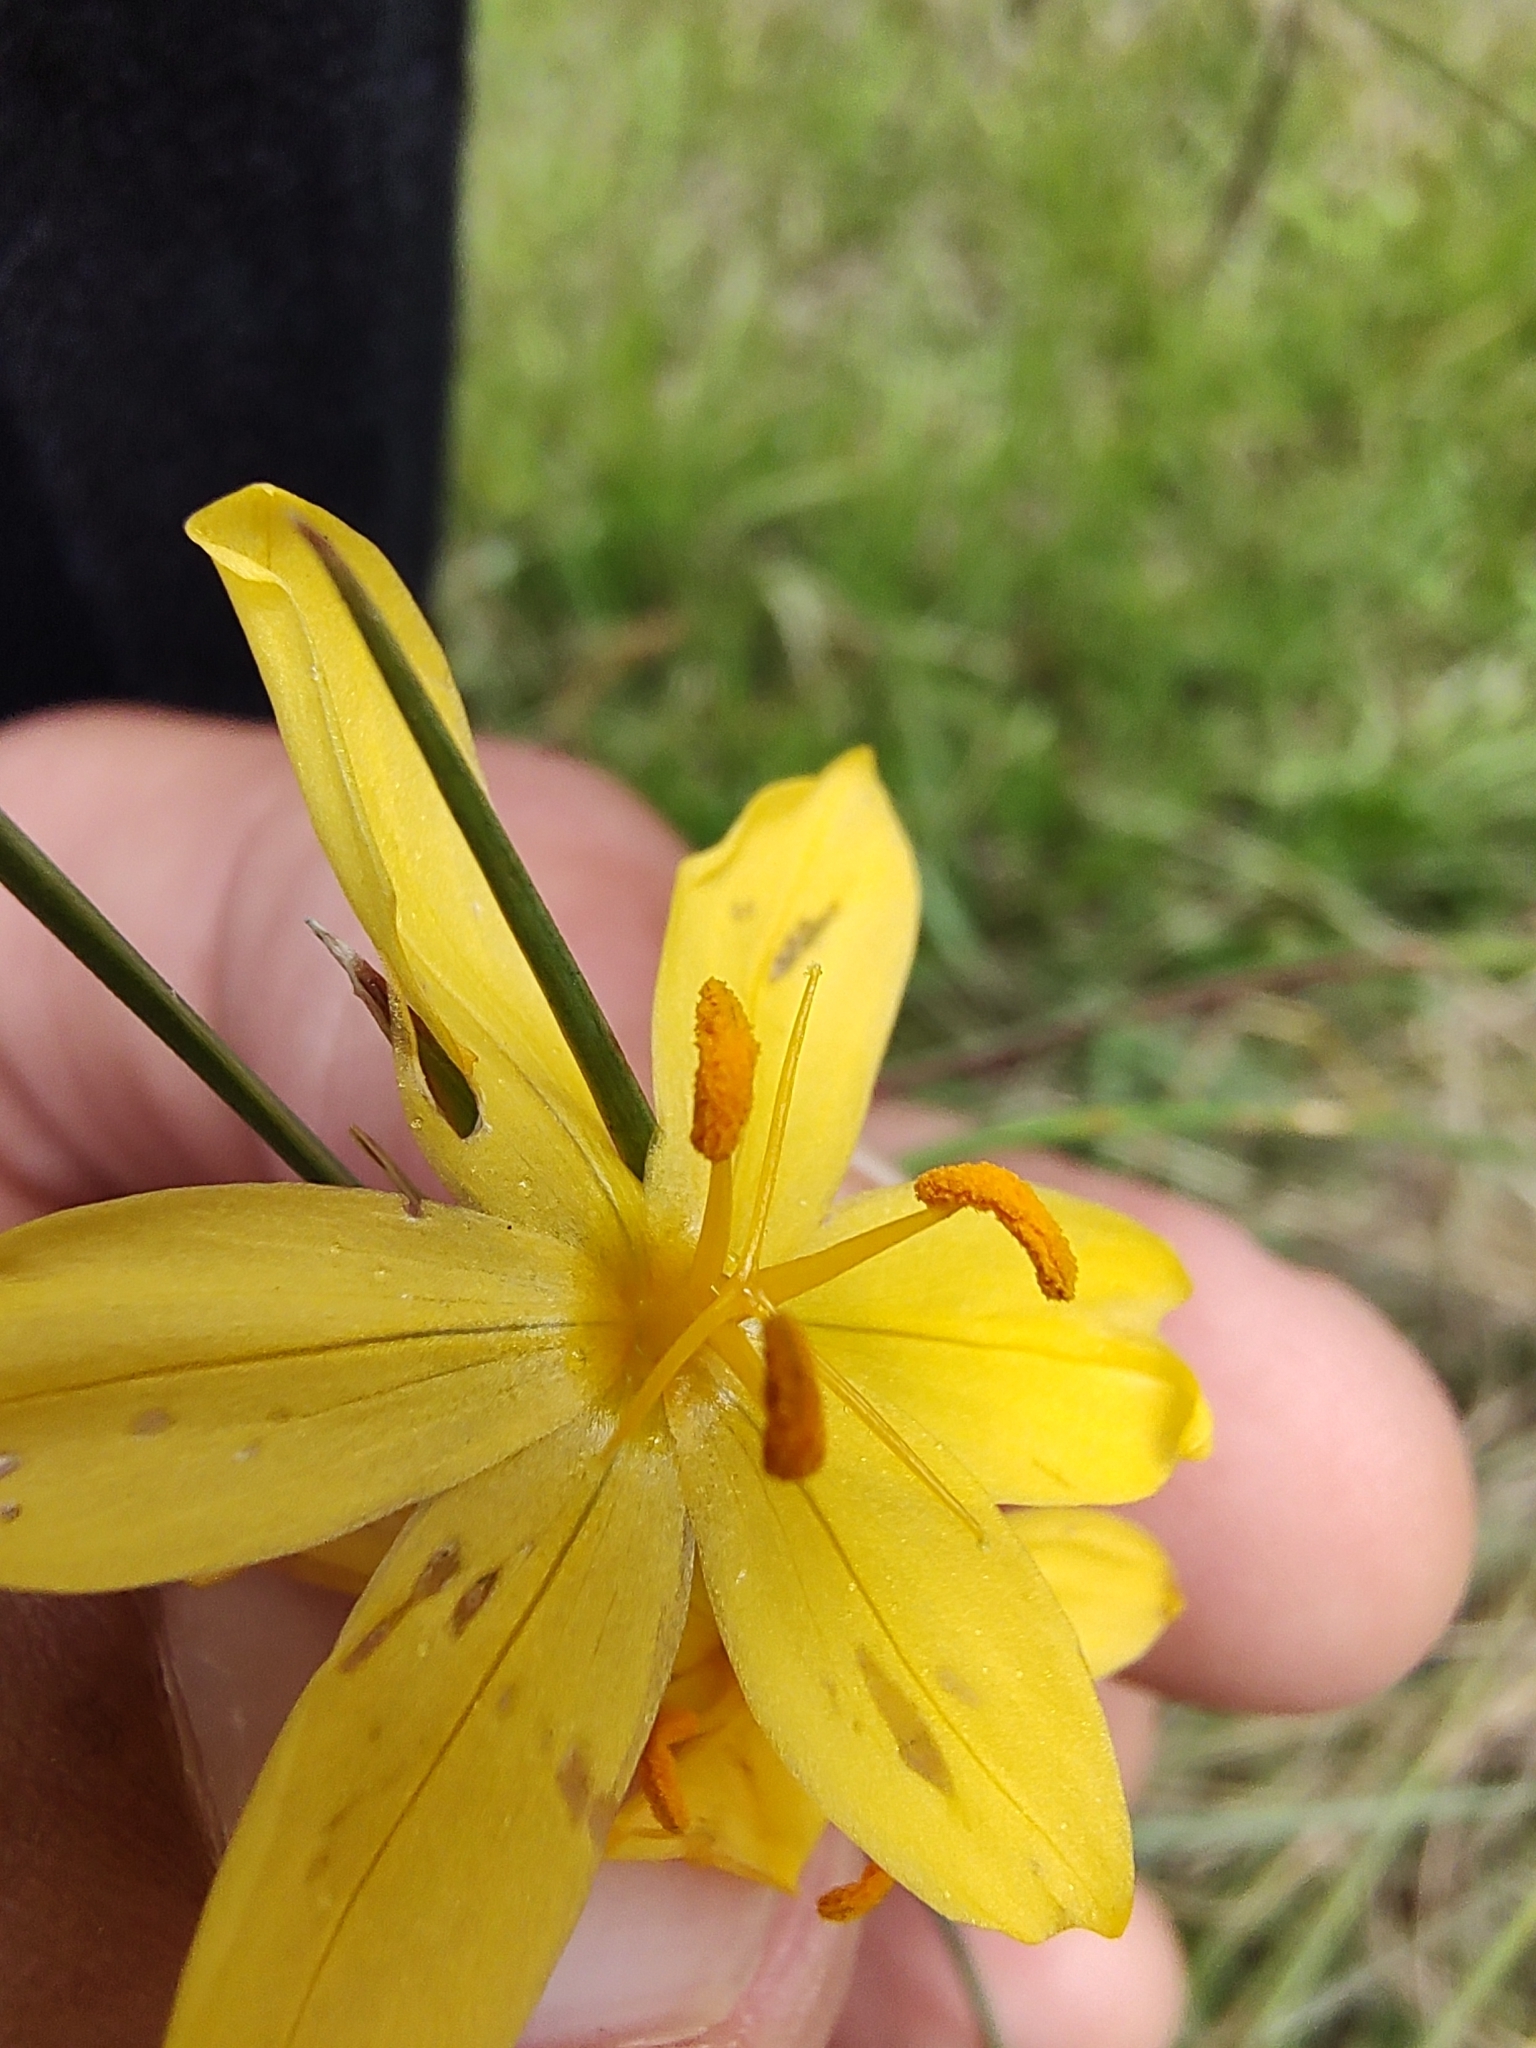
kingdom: Plantae
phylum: Tracheophyta
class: Liliopsida
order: Asparagales
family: Iridaceae
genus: Sisyrinchium
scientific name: Sisyrinchium pringlei
